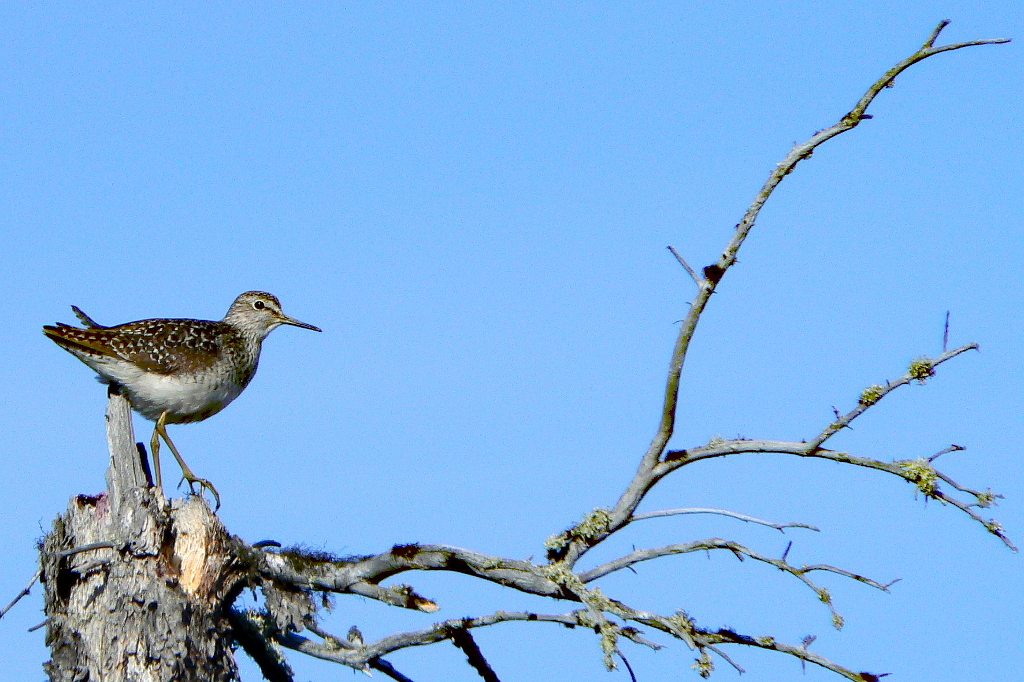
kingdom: Animalia
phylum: Chordata
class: Aves
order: Charadriiformes
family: Scolopacidae
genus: Tringa
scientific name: Tringa glareola
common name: Wood sandpiper
